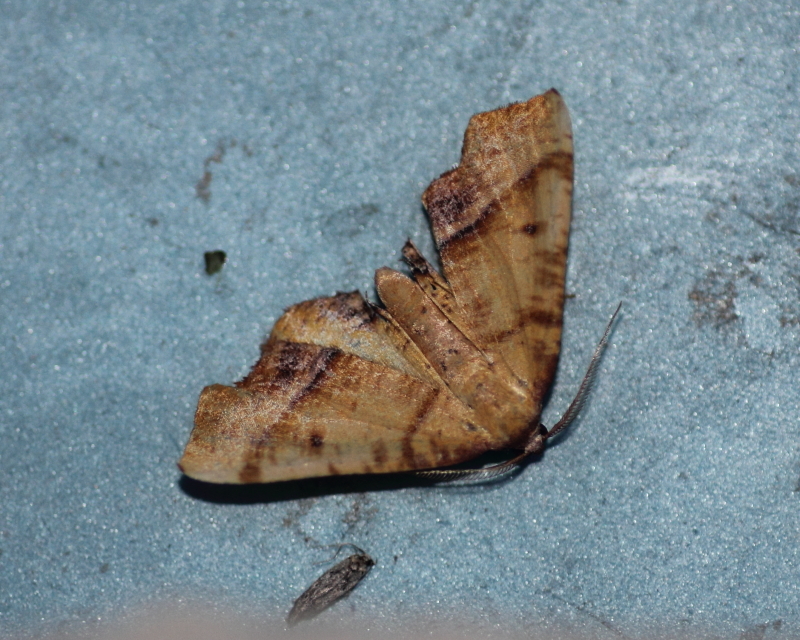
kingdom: Animalia
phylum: Arthropoda
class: Insecta
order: Lepidoptera
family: Geometridae
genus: Plagodis
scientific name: Plagodis phlogosaria
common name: Straight-lined plagodis
